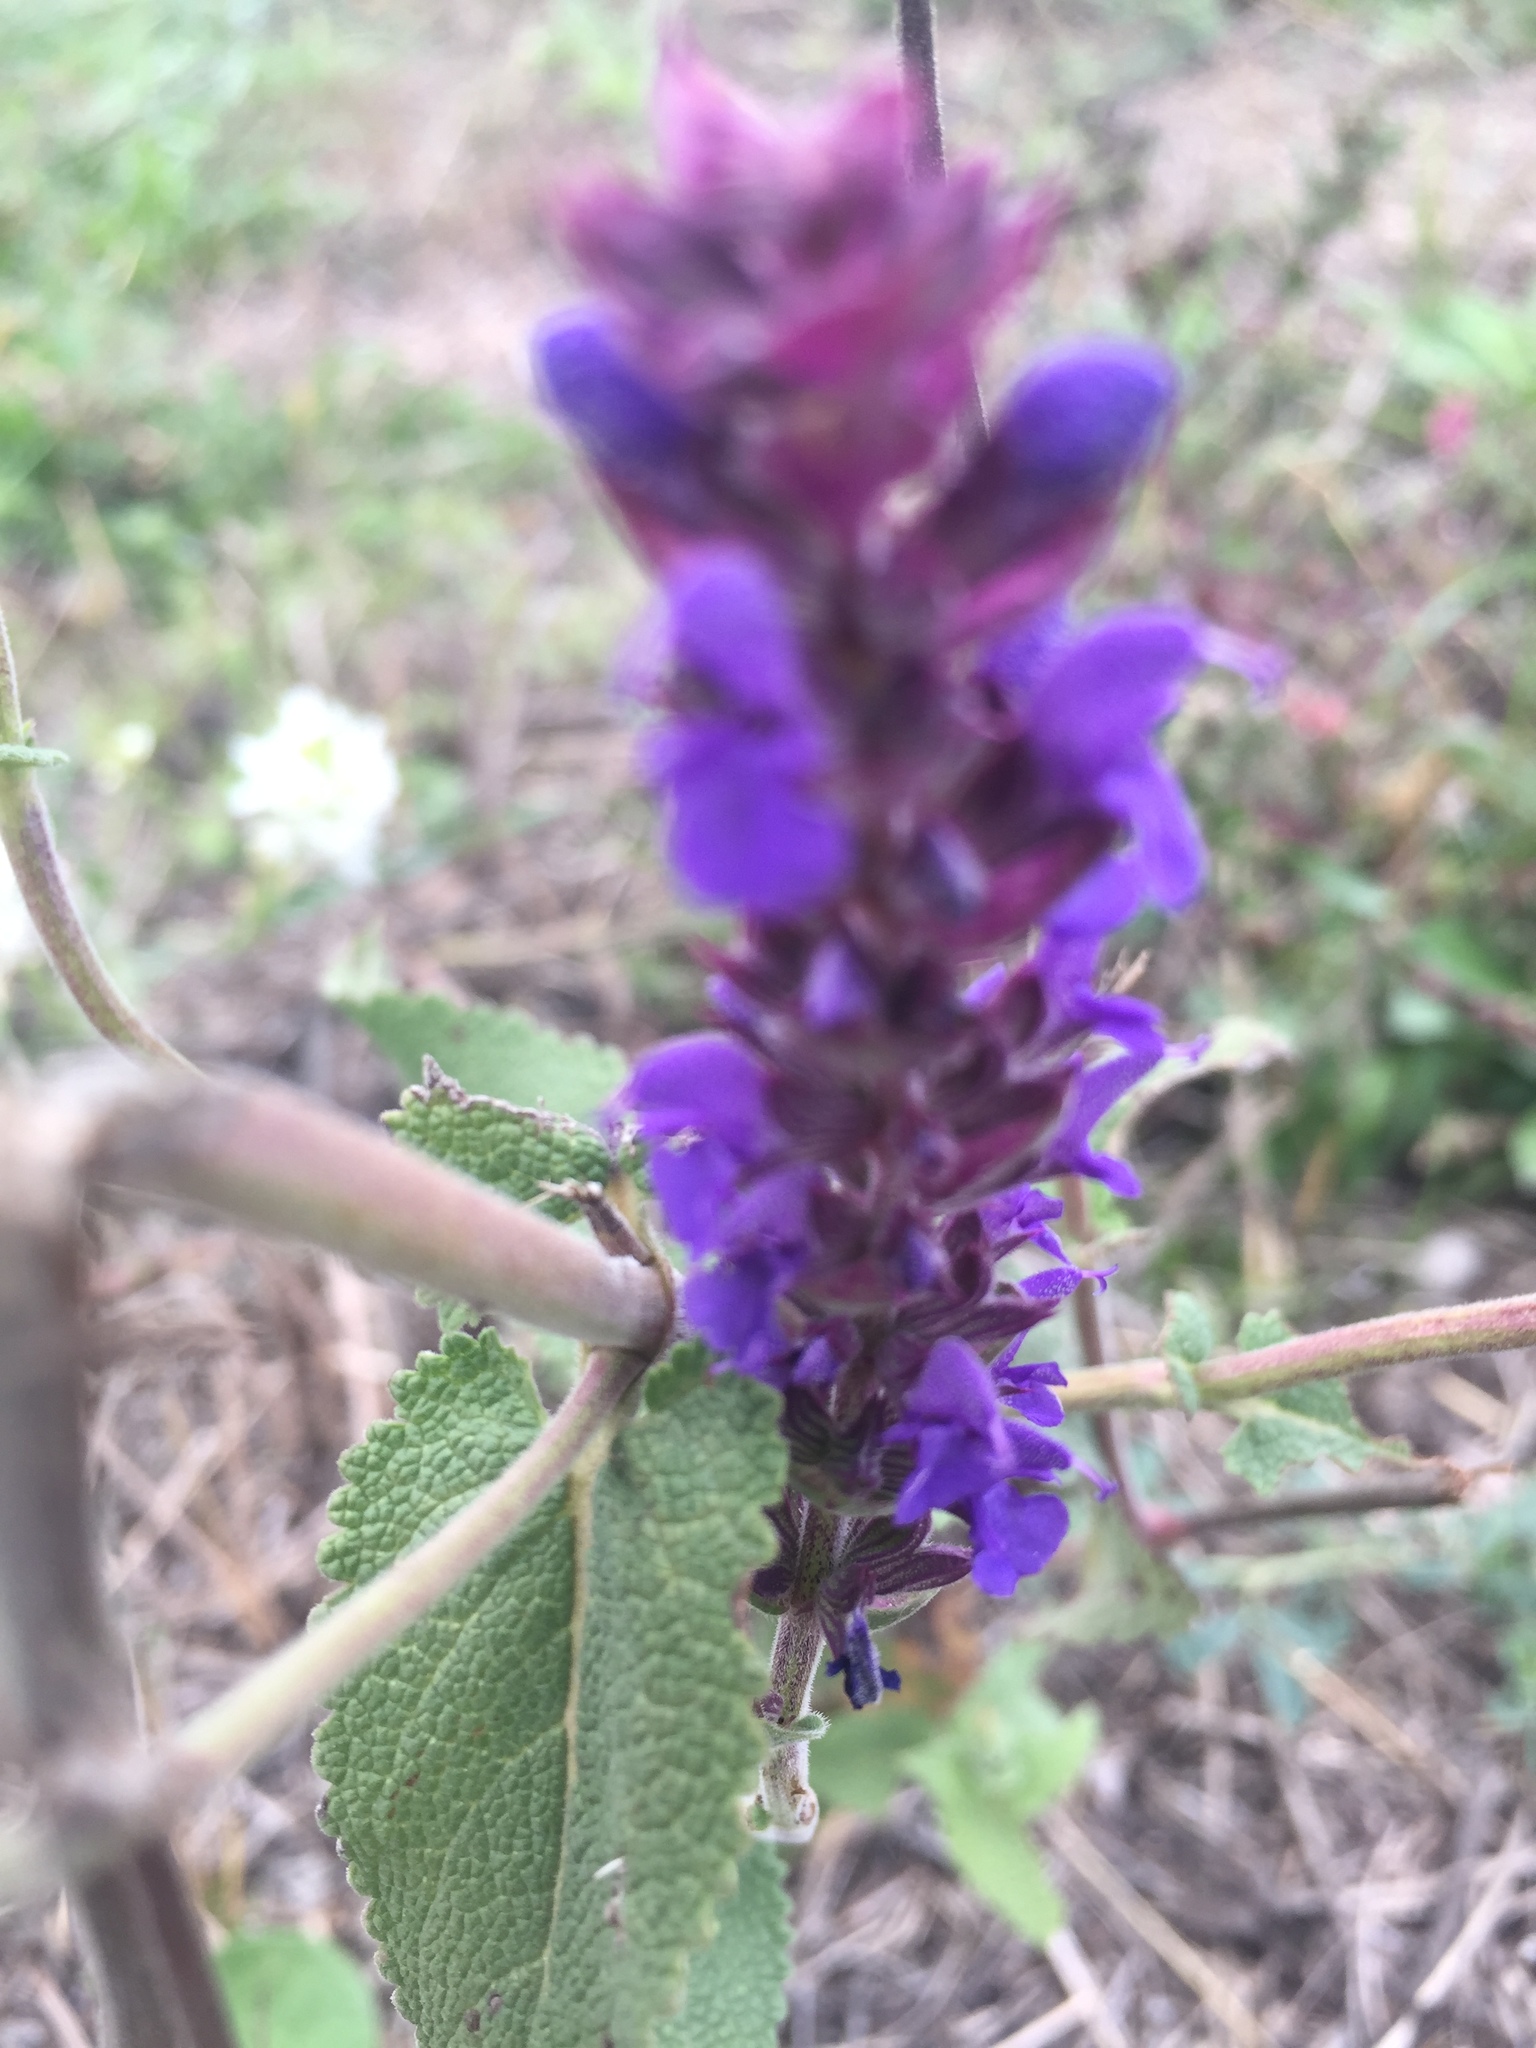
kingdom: Plantae
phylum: Tracheophyta
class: Magnoliopsida
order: Lamiales
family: Lamiaceae
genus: Salvia
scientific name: Salvia nemorosa
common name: Balkan clary
